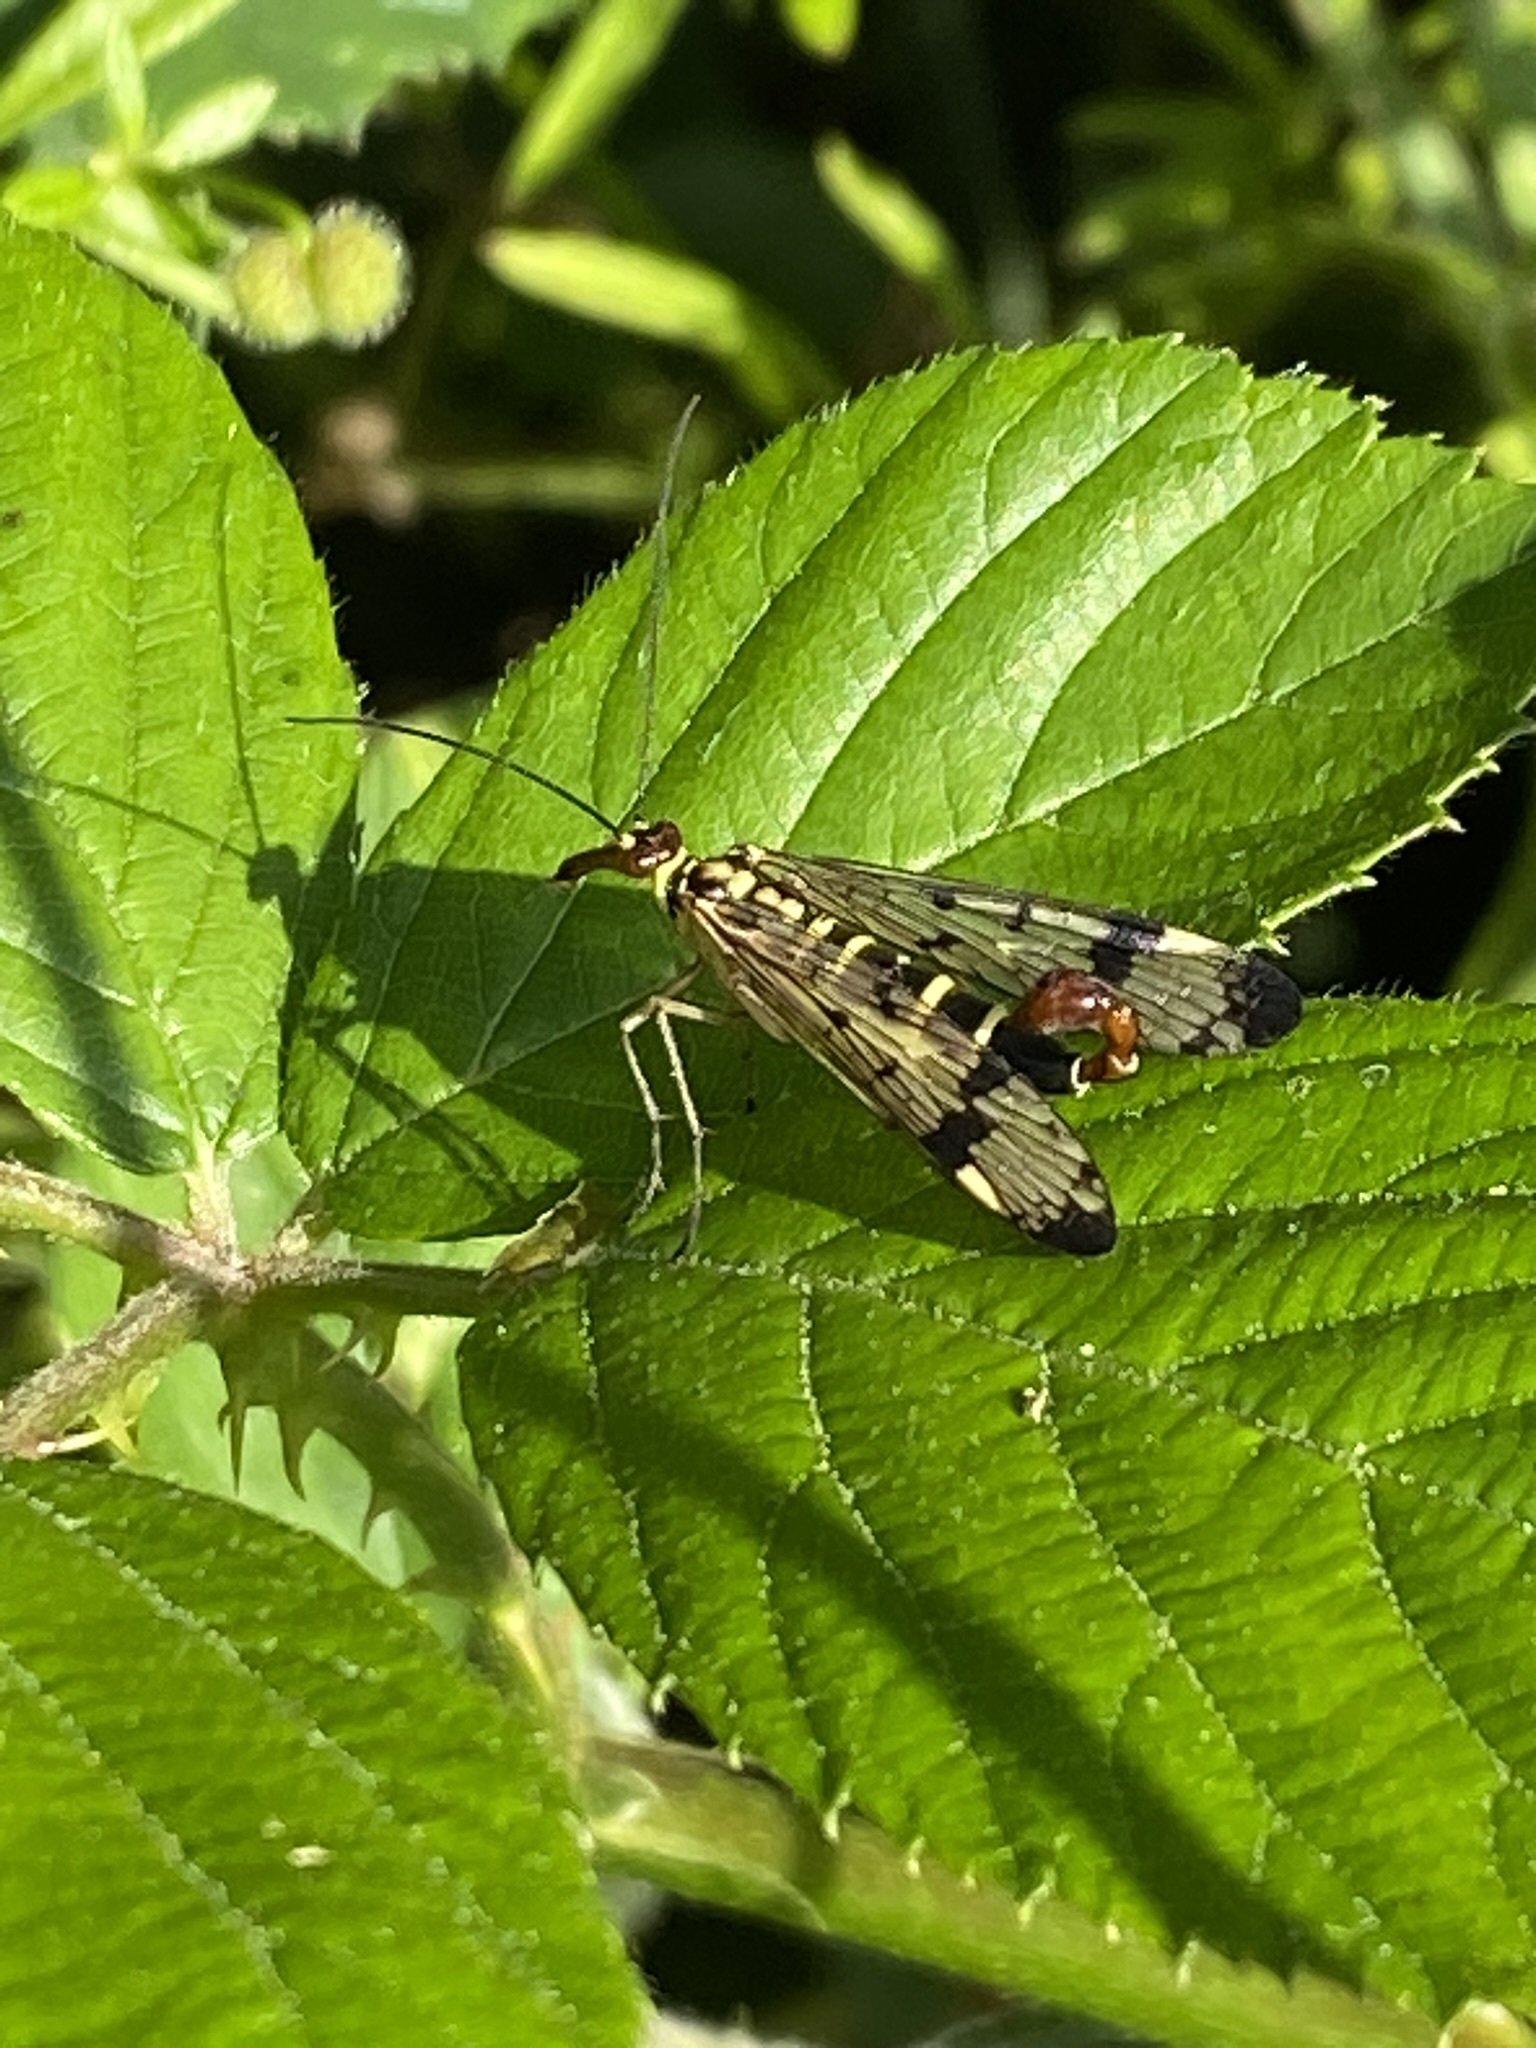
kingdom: Animalia
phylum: Arthropoda
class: Insecta
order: Mecoptera
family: Panorpidae
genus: Panorpa
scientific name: Panorpa communis
